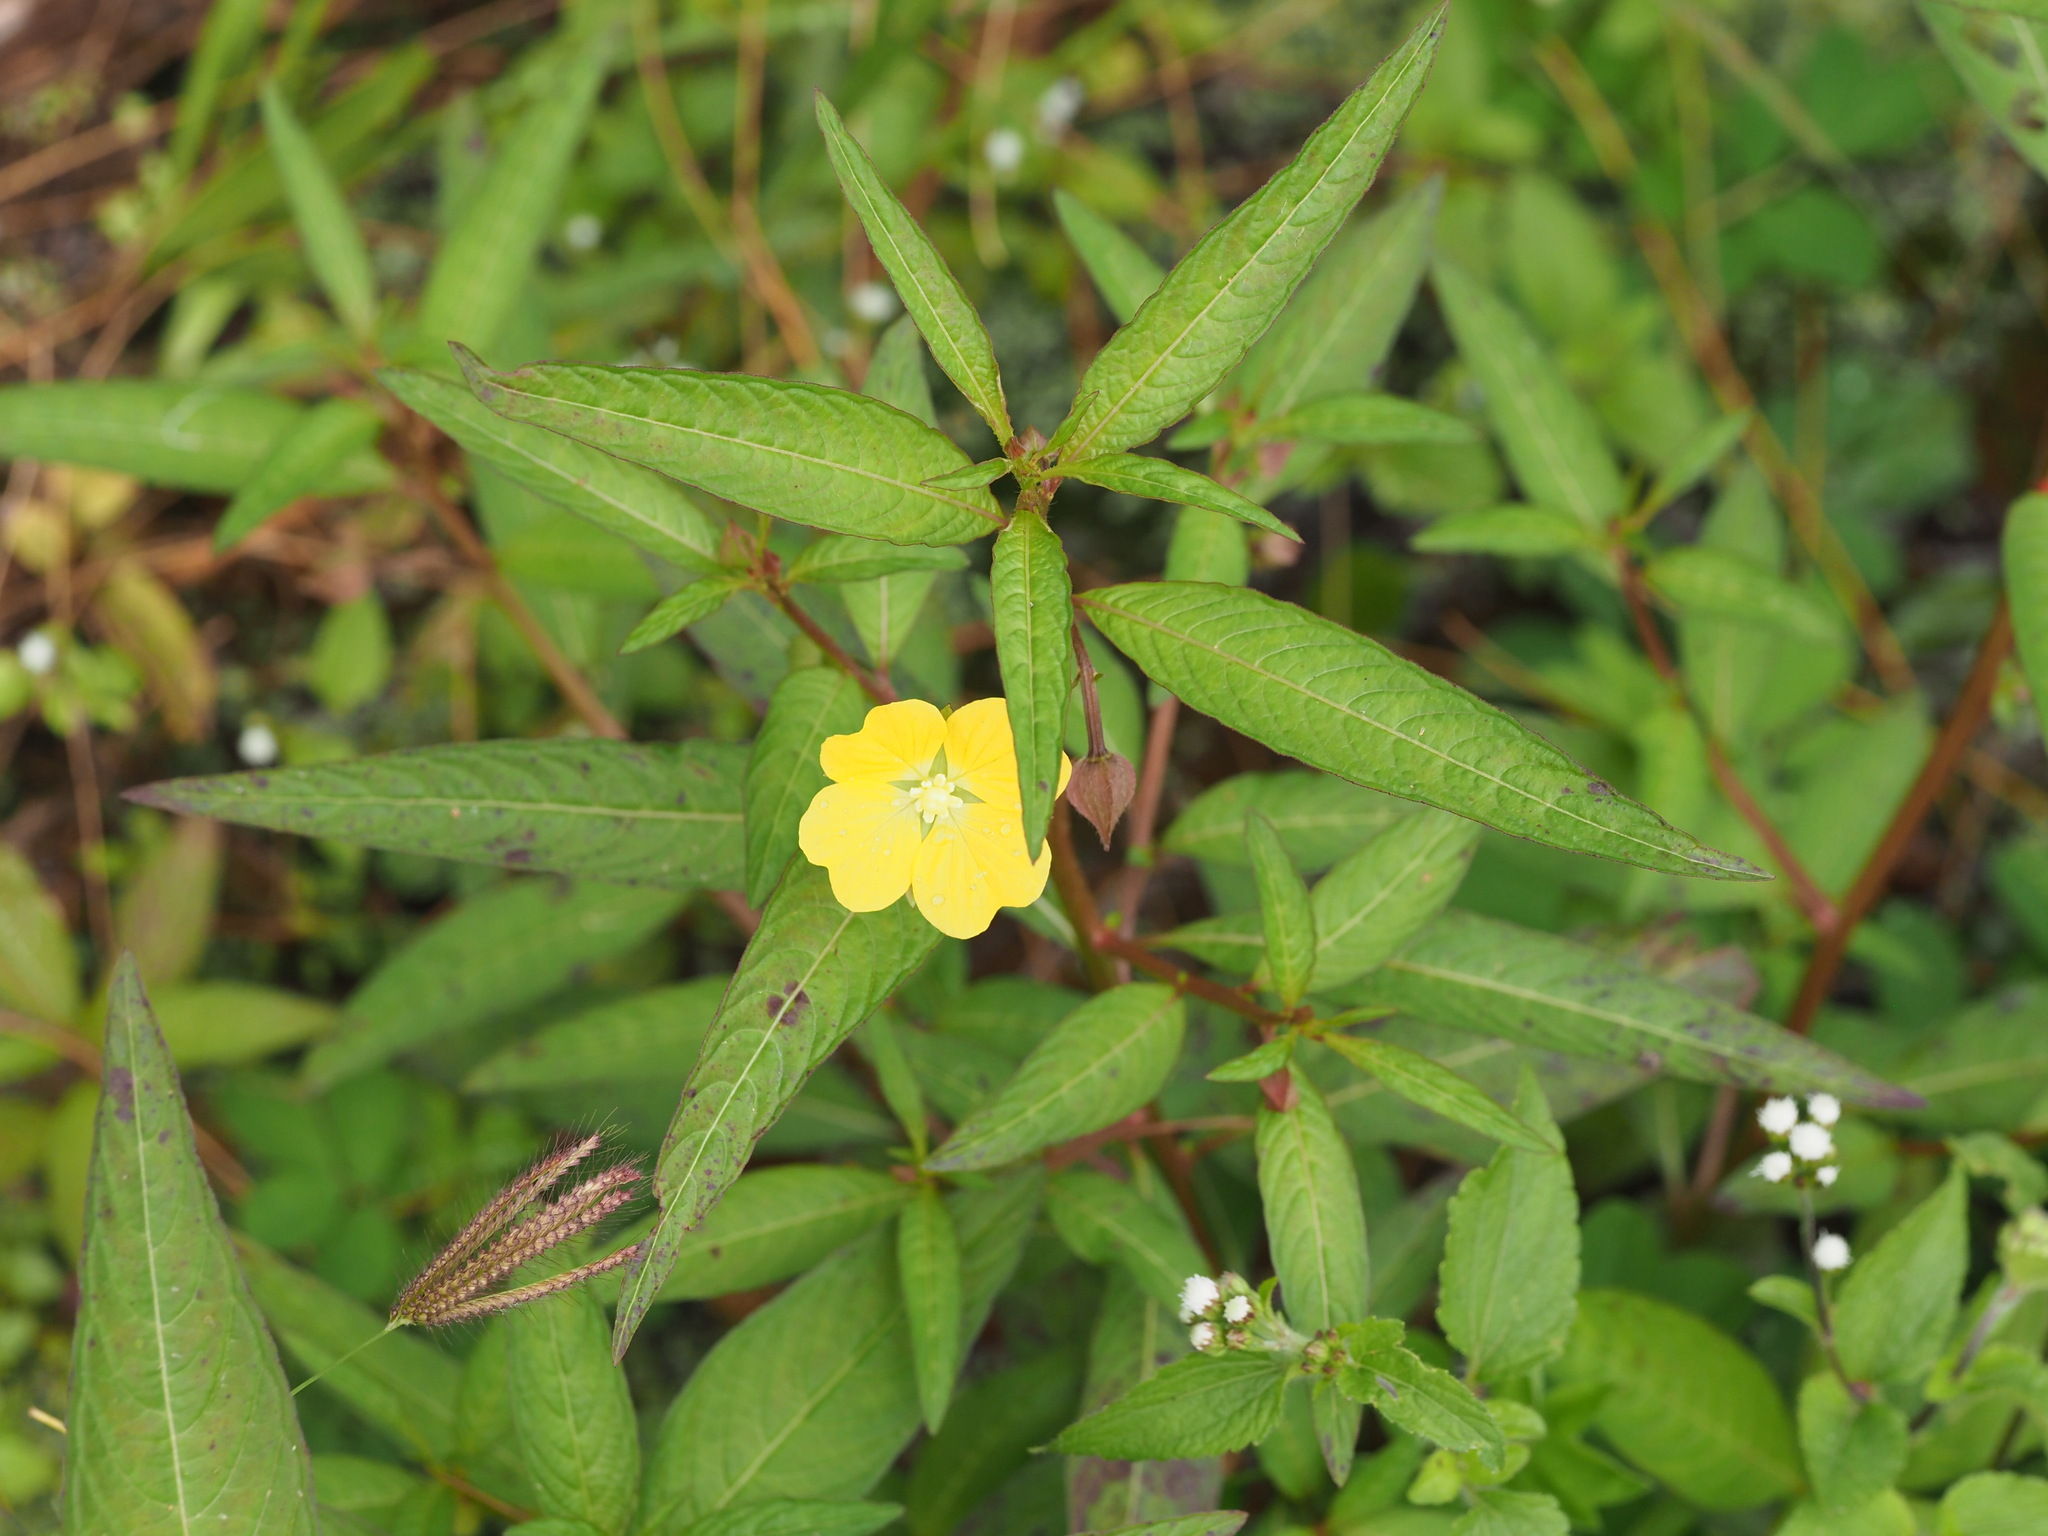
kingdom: Plantae
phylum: Tracheophyta
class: Magnoliopsida
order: Myrtales
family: Onagraceae
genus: Ludwigia
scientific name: Ludwigia octovalvis
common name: Water-primrose
